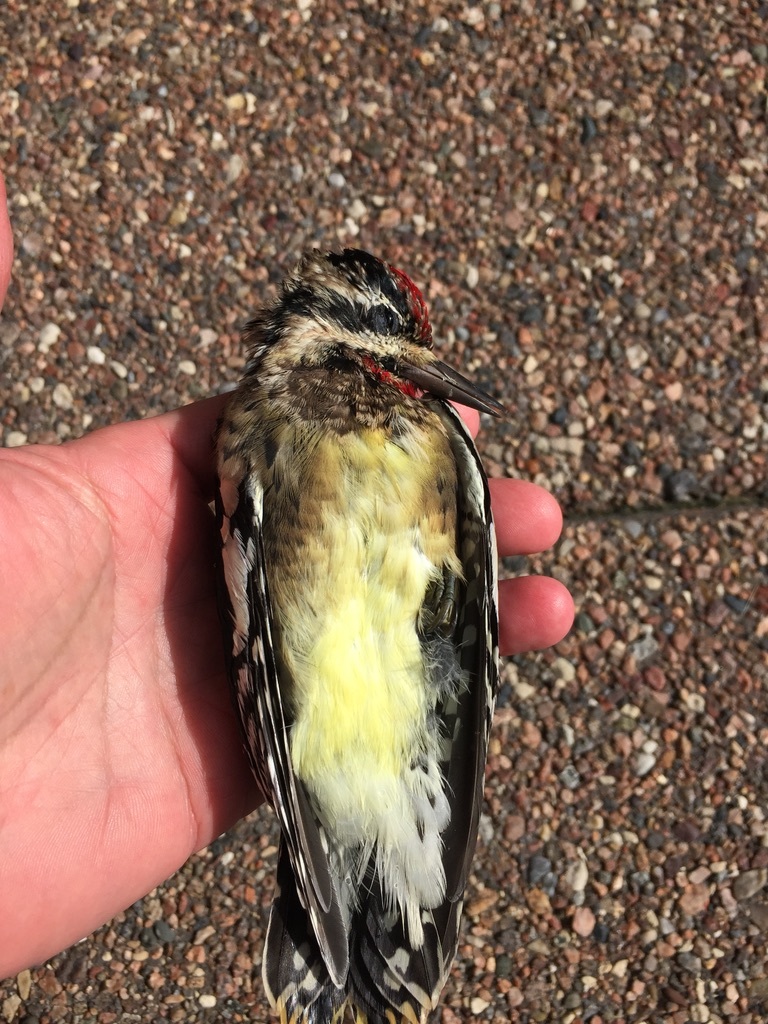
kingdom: Animalia
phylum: Chordata
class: Aves
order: Piciformes
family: Picidae
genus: Sphyrapicus
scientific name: Sphyrapicus varius
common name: Yellow-bellied sapsucker
